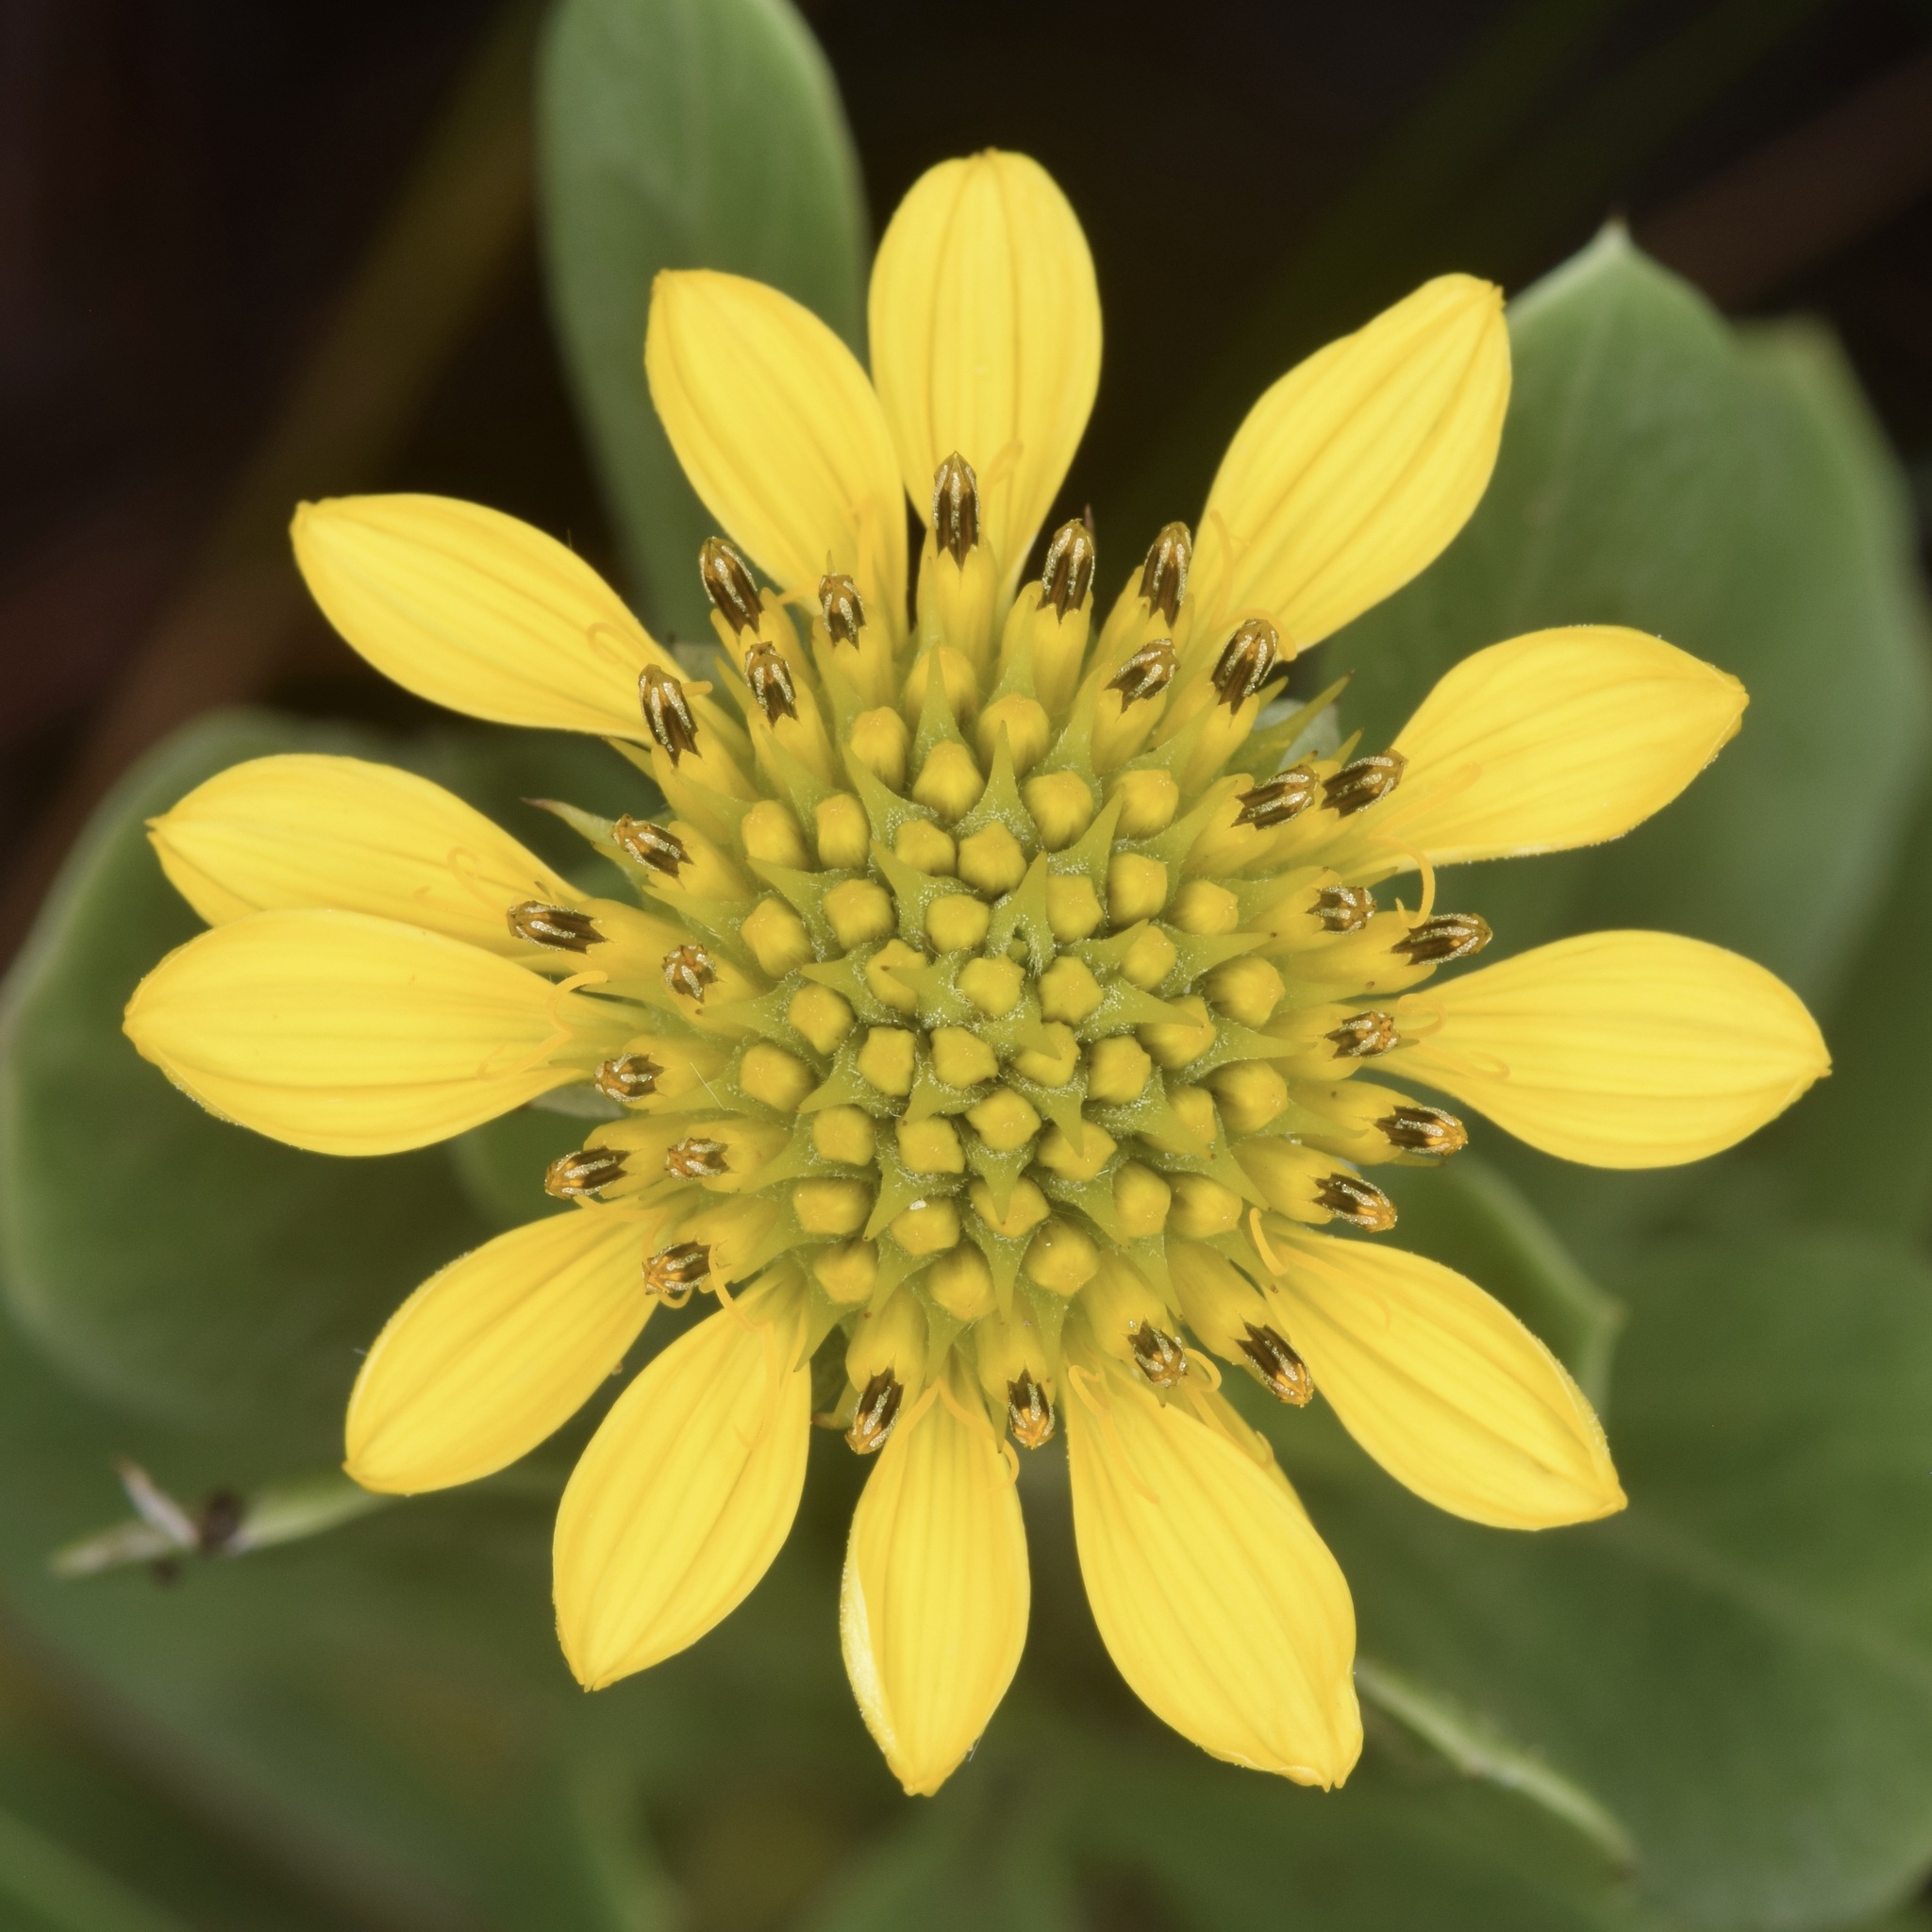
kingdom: Plantae
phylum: Tracheophyta
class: Magnoliopsida
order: Asterales
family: Asteraceae
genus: Borrichia
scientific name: Borrichia frutescens
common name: Sea oxeye
